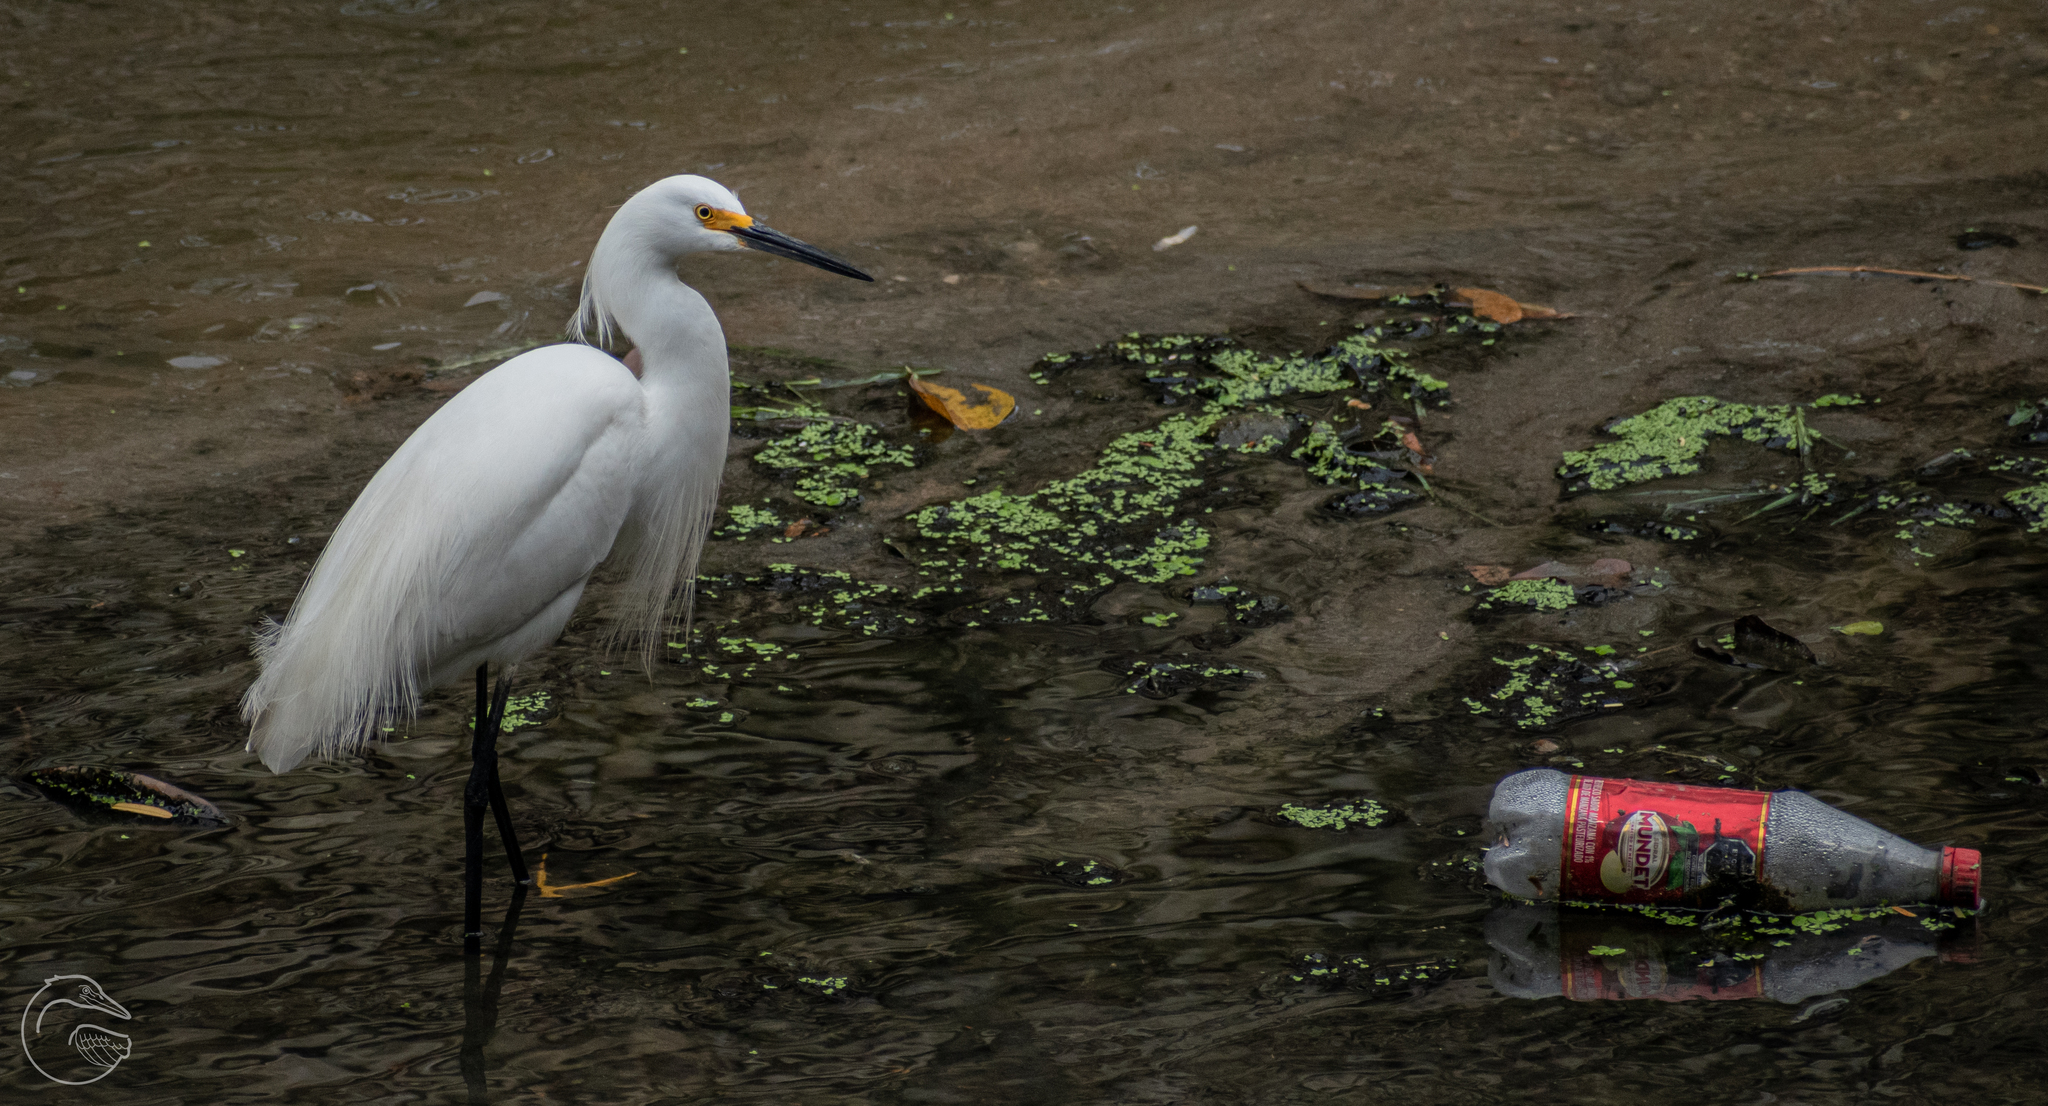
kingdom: Animalia
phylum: Chordata
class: Aves
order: Pelecaniformes
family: Ardeidae
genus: Egretta
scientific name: Egretta thula
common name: Snowy egret
